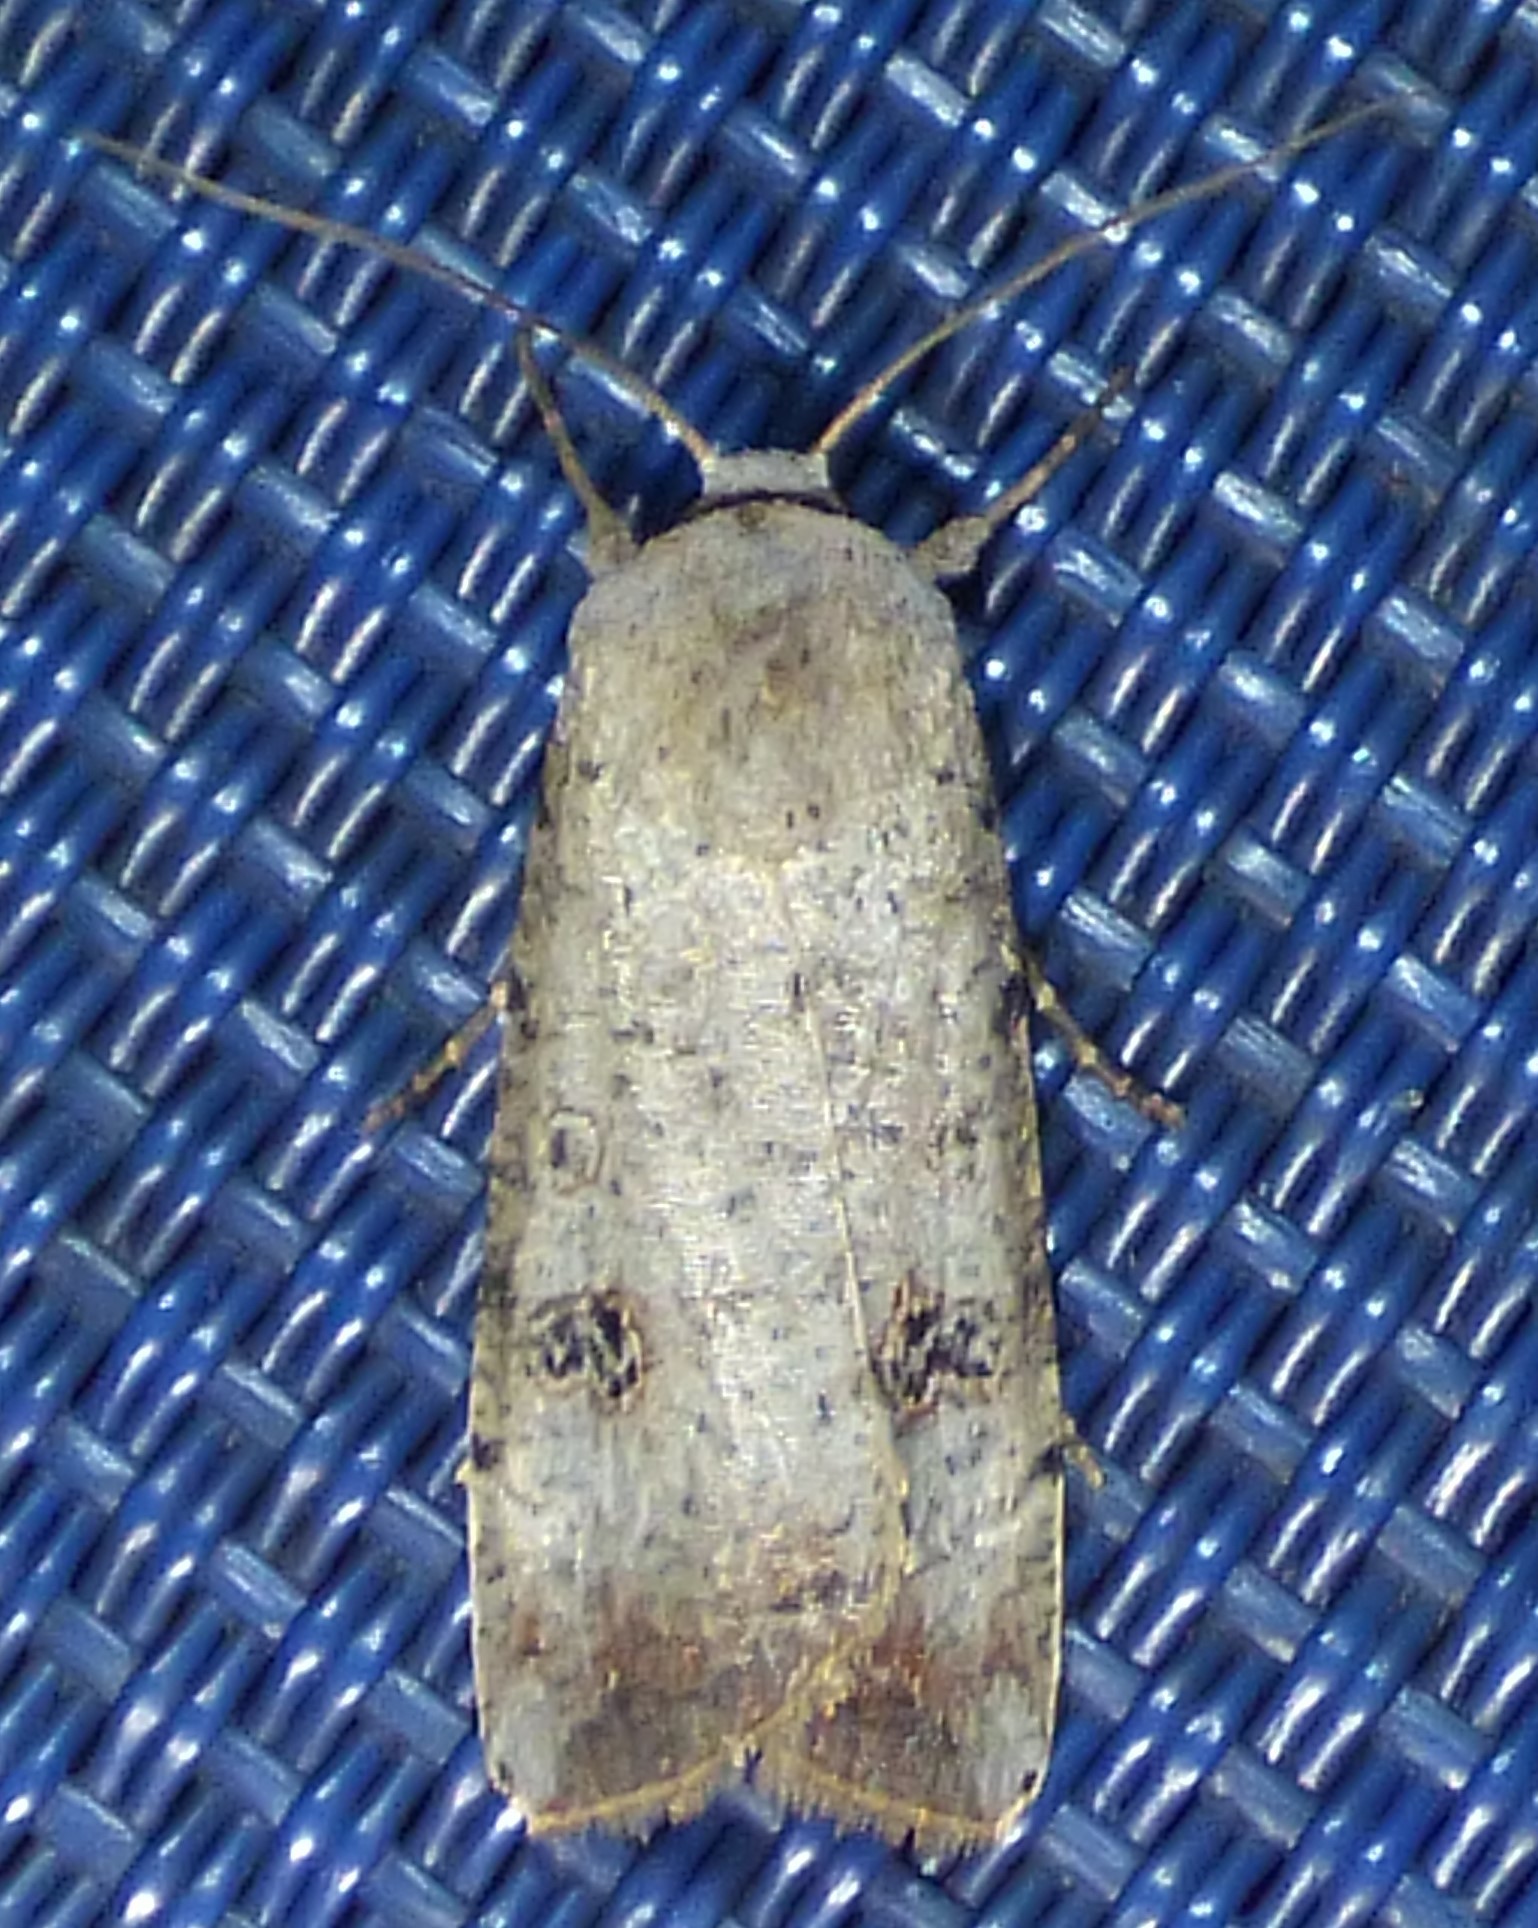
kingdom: Animalia
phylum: Arthropoda
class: Insecta
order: Lepidoptera
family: Noctuidae
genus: Anicla
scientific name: Anicla infecta
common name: Green cutworm
